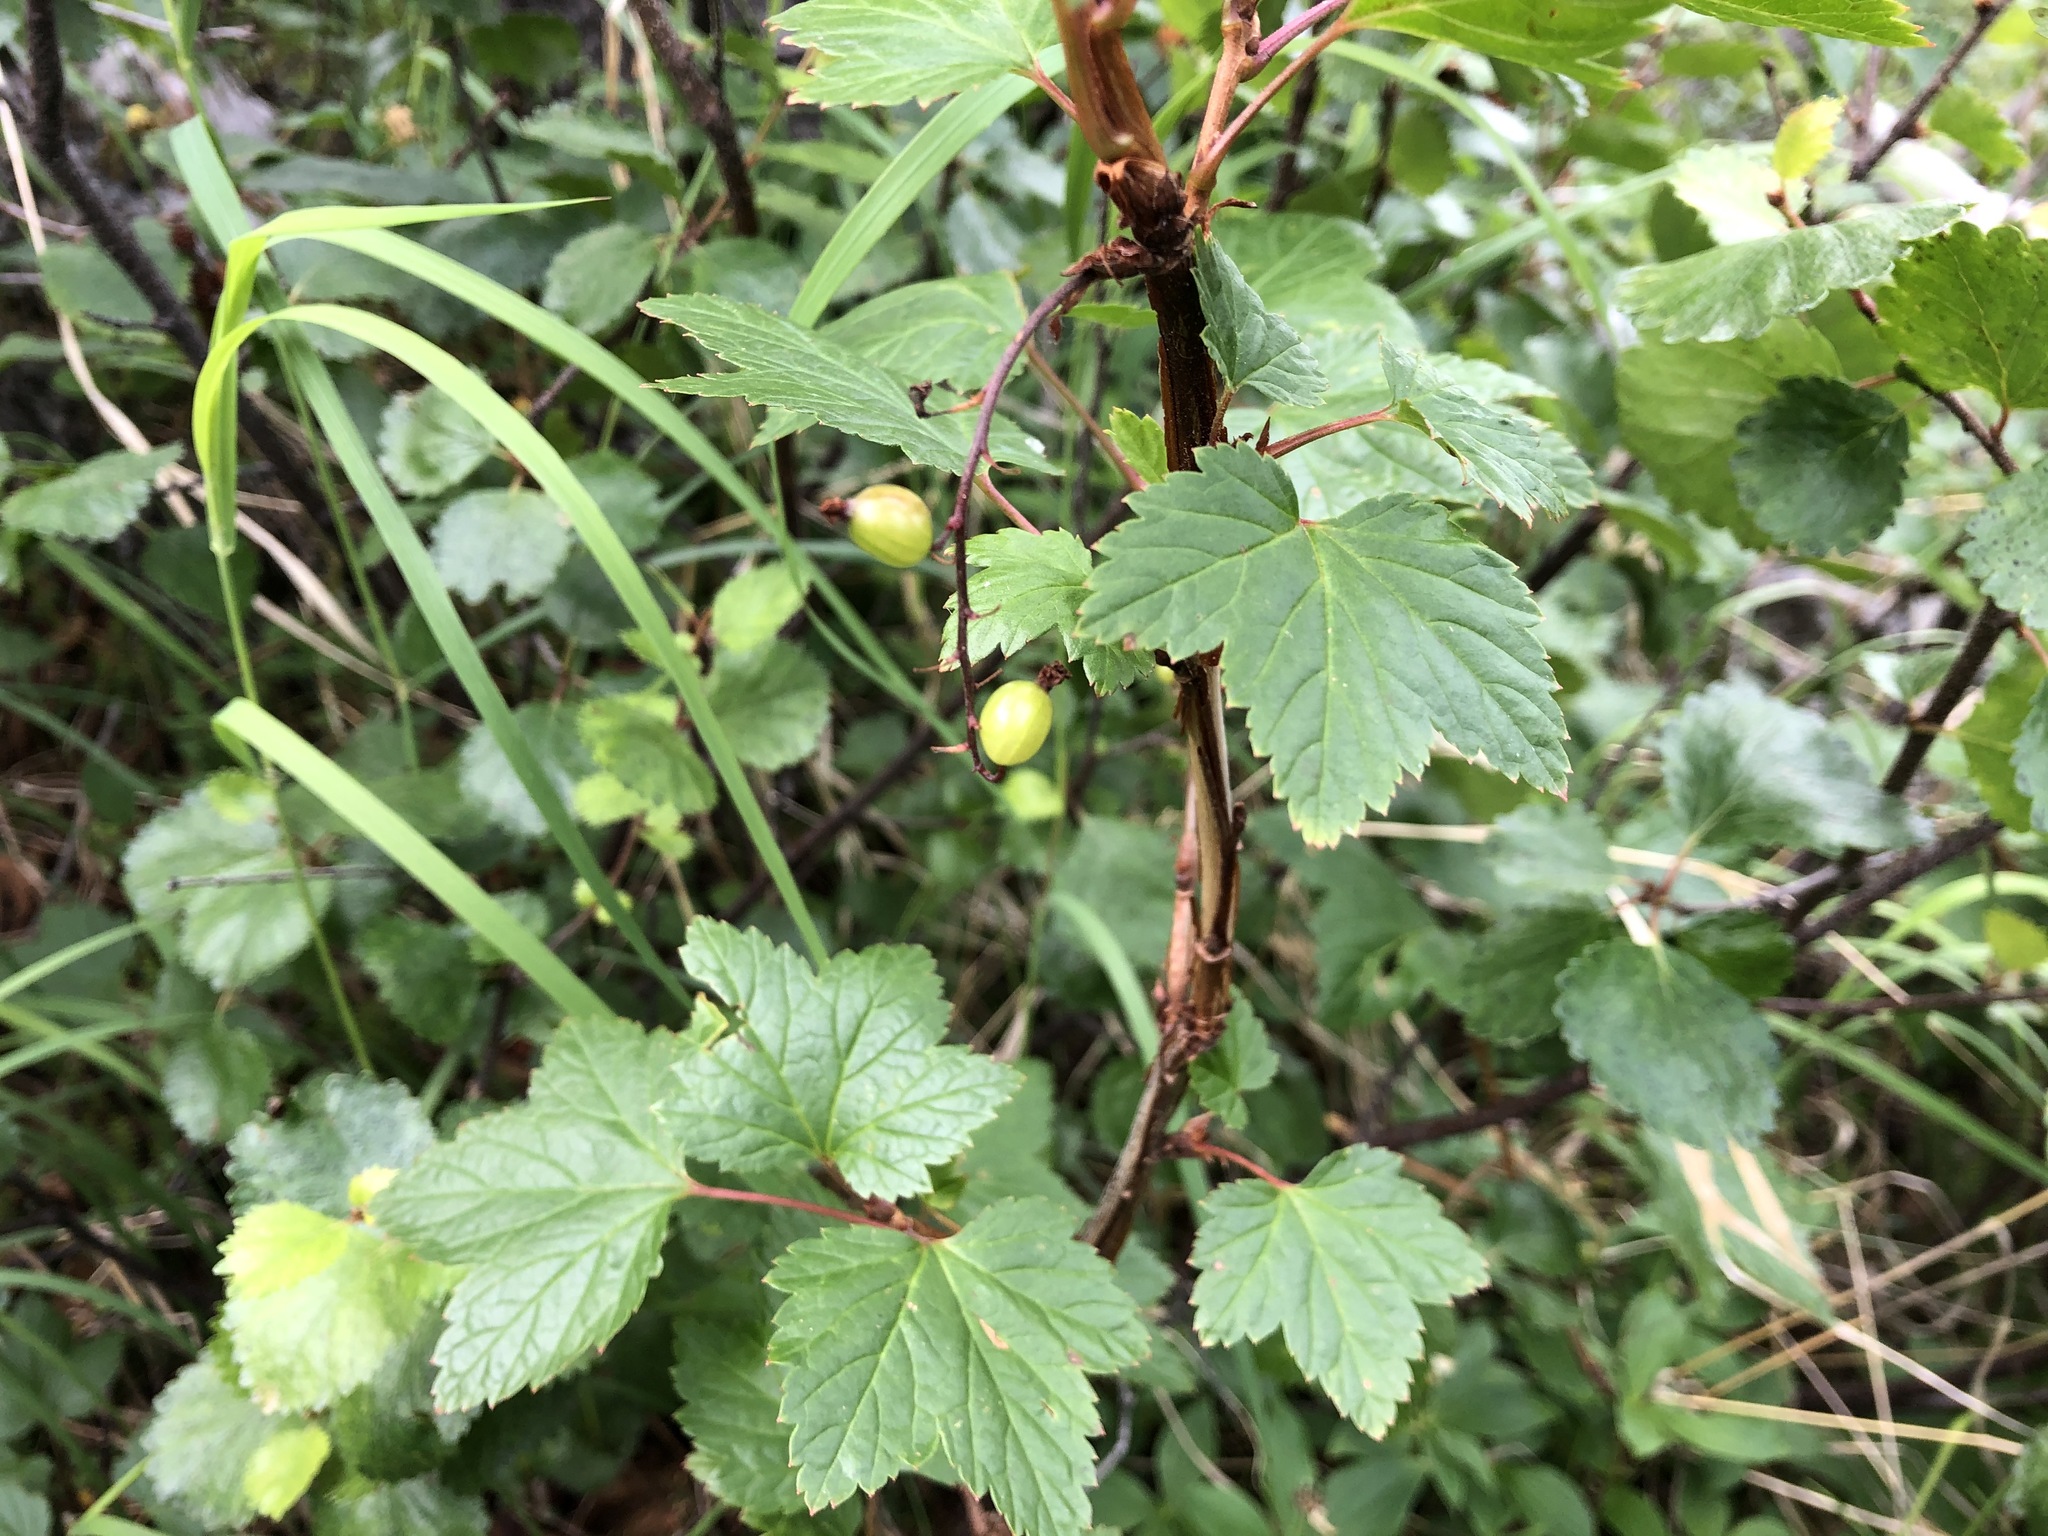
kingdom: Plantae
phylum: Tracheophyta
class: Magnoliopsida
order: Saxifragales
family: Grossulariaceae
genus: Ribes
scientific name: Ribes triste
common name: Swamp red currant
